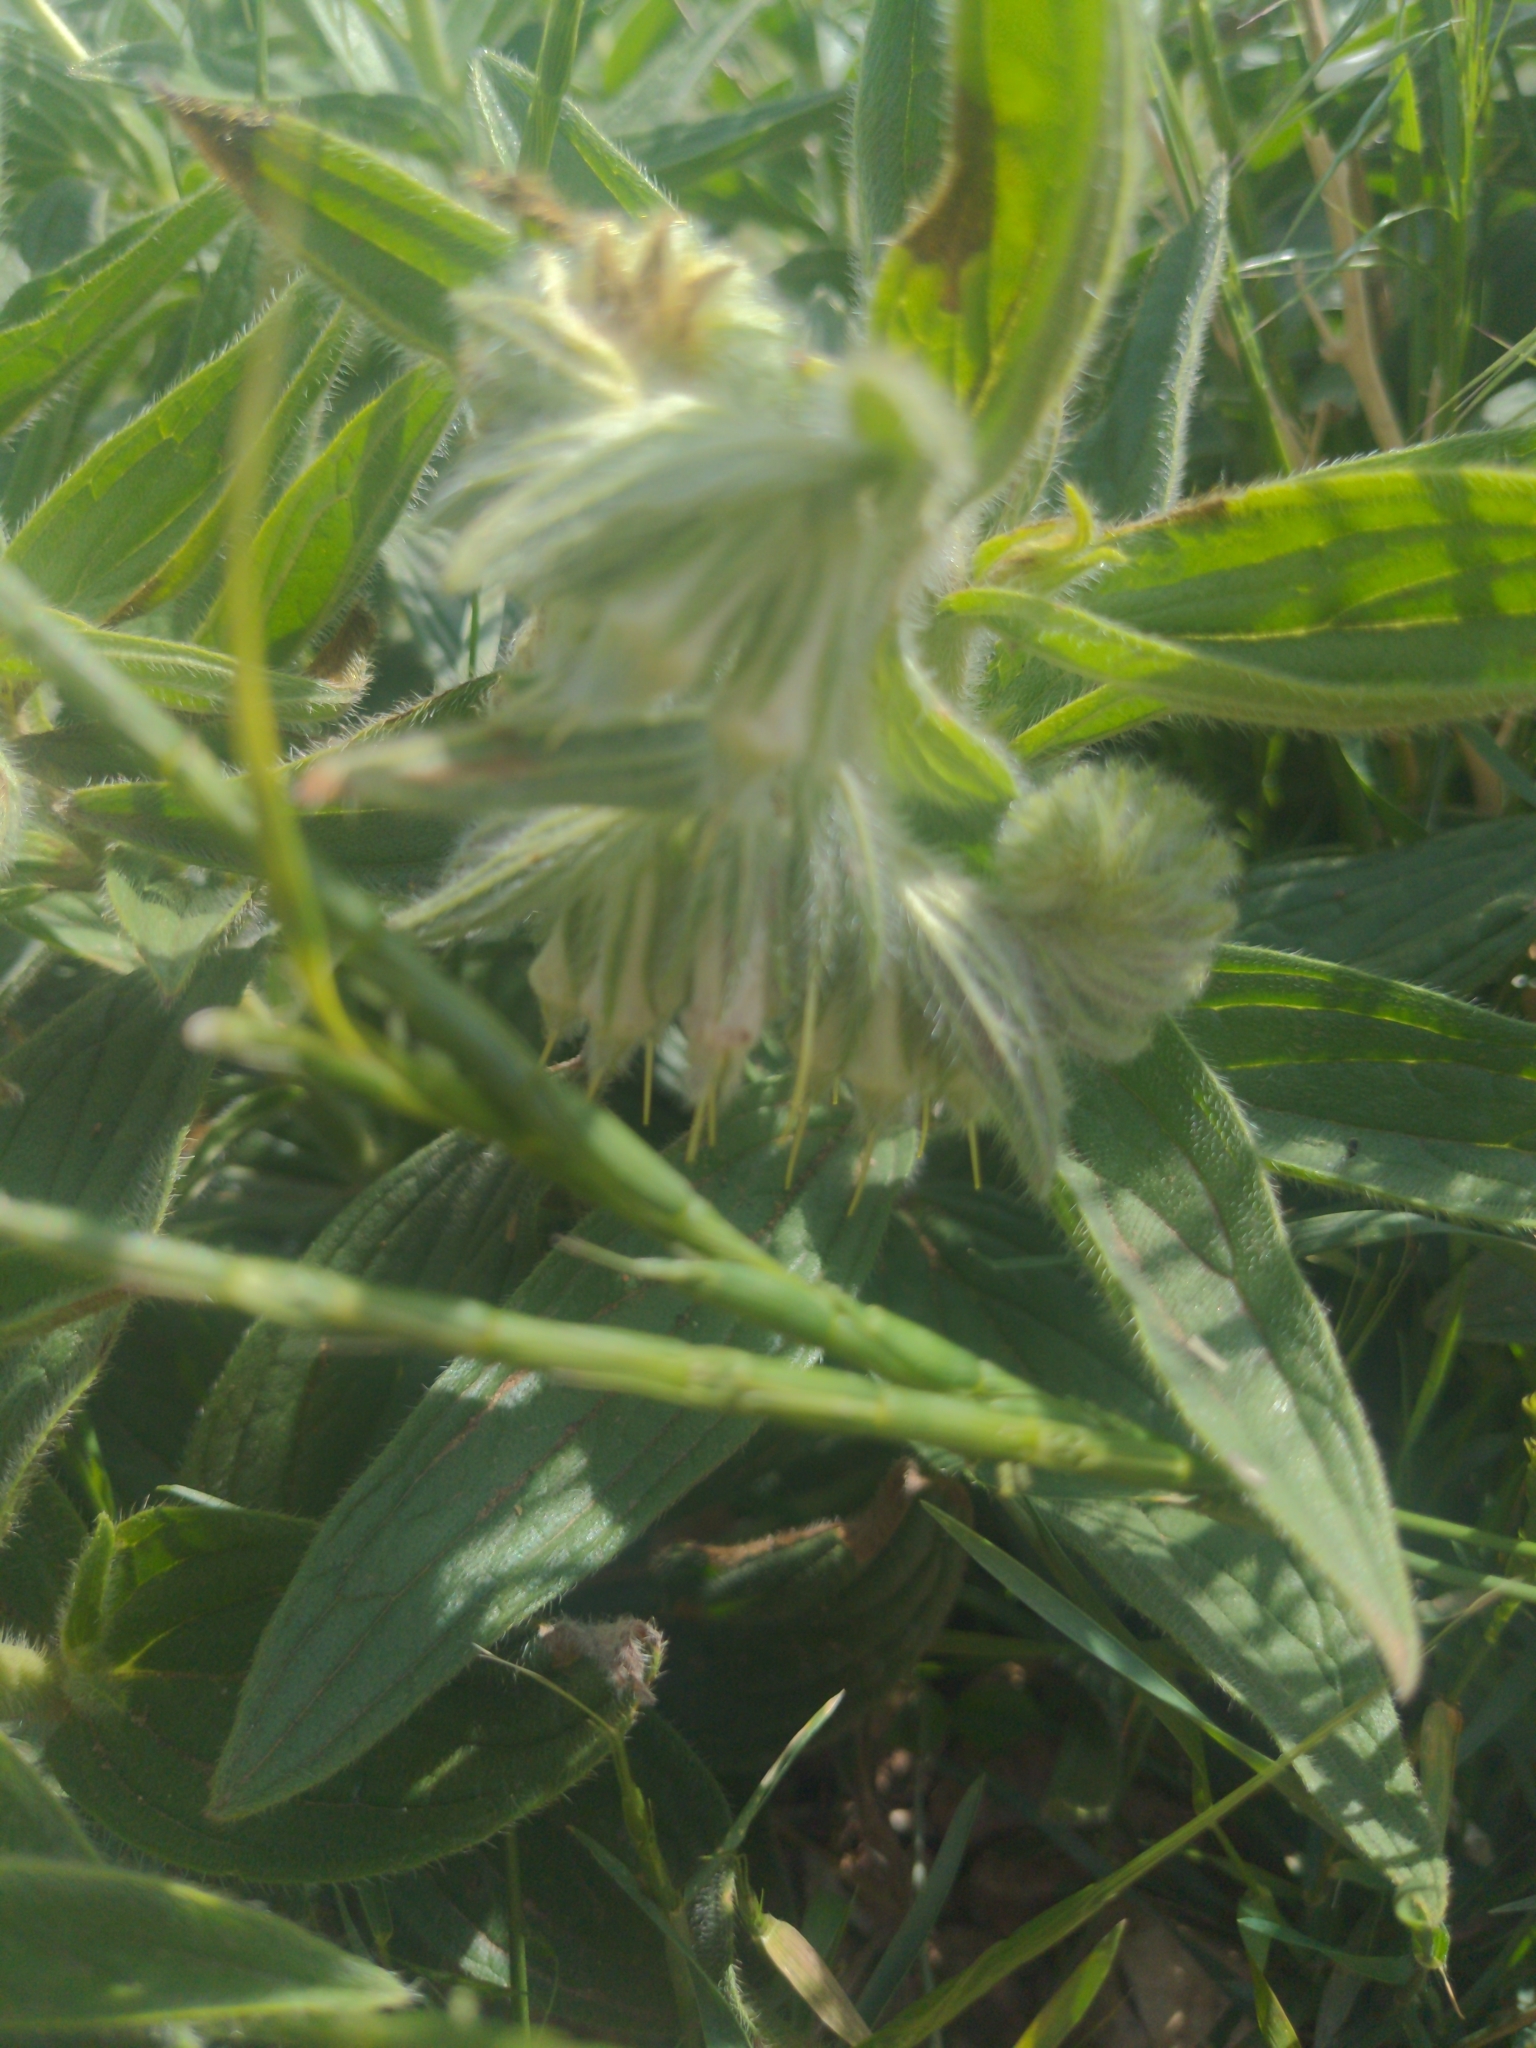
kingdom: Plantae
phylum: Tracheophyta
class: Magnoliopsida
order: Boraginales
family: Boraginaceae
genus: Lithospermum
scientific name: Lithospermum occidentale
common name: Western false gromwell
